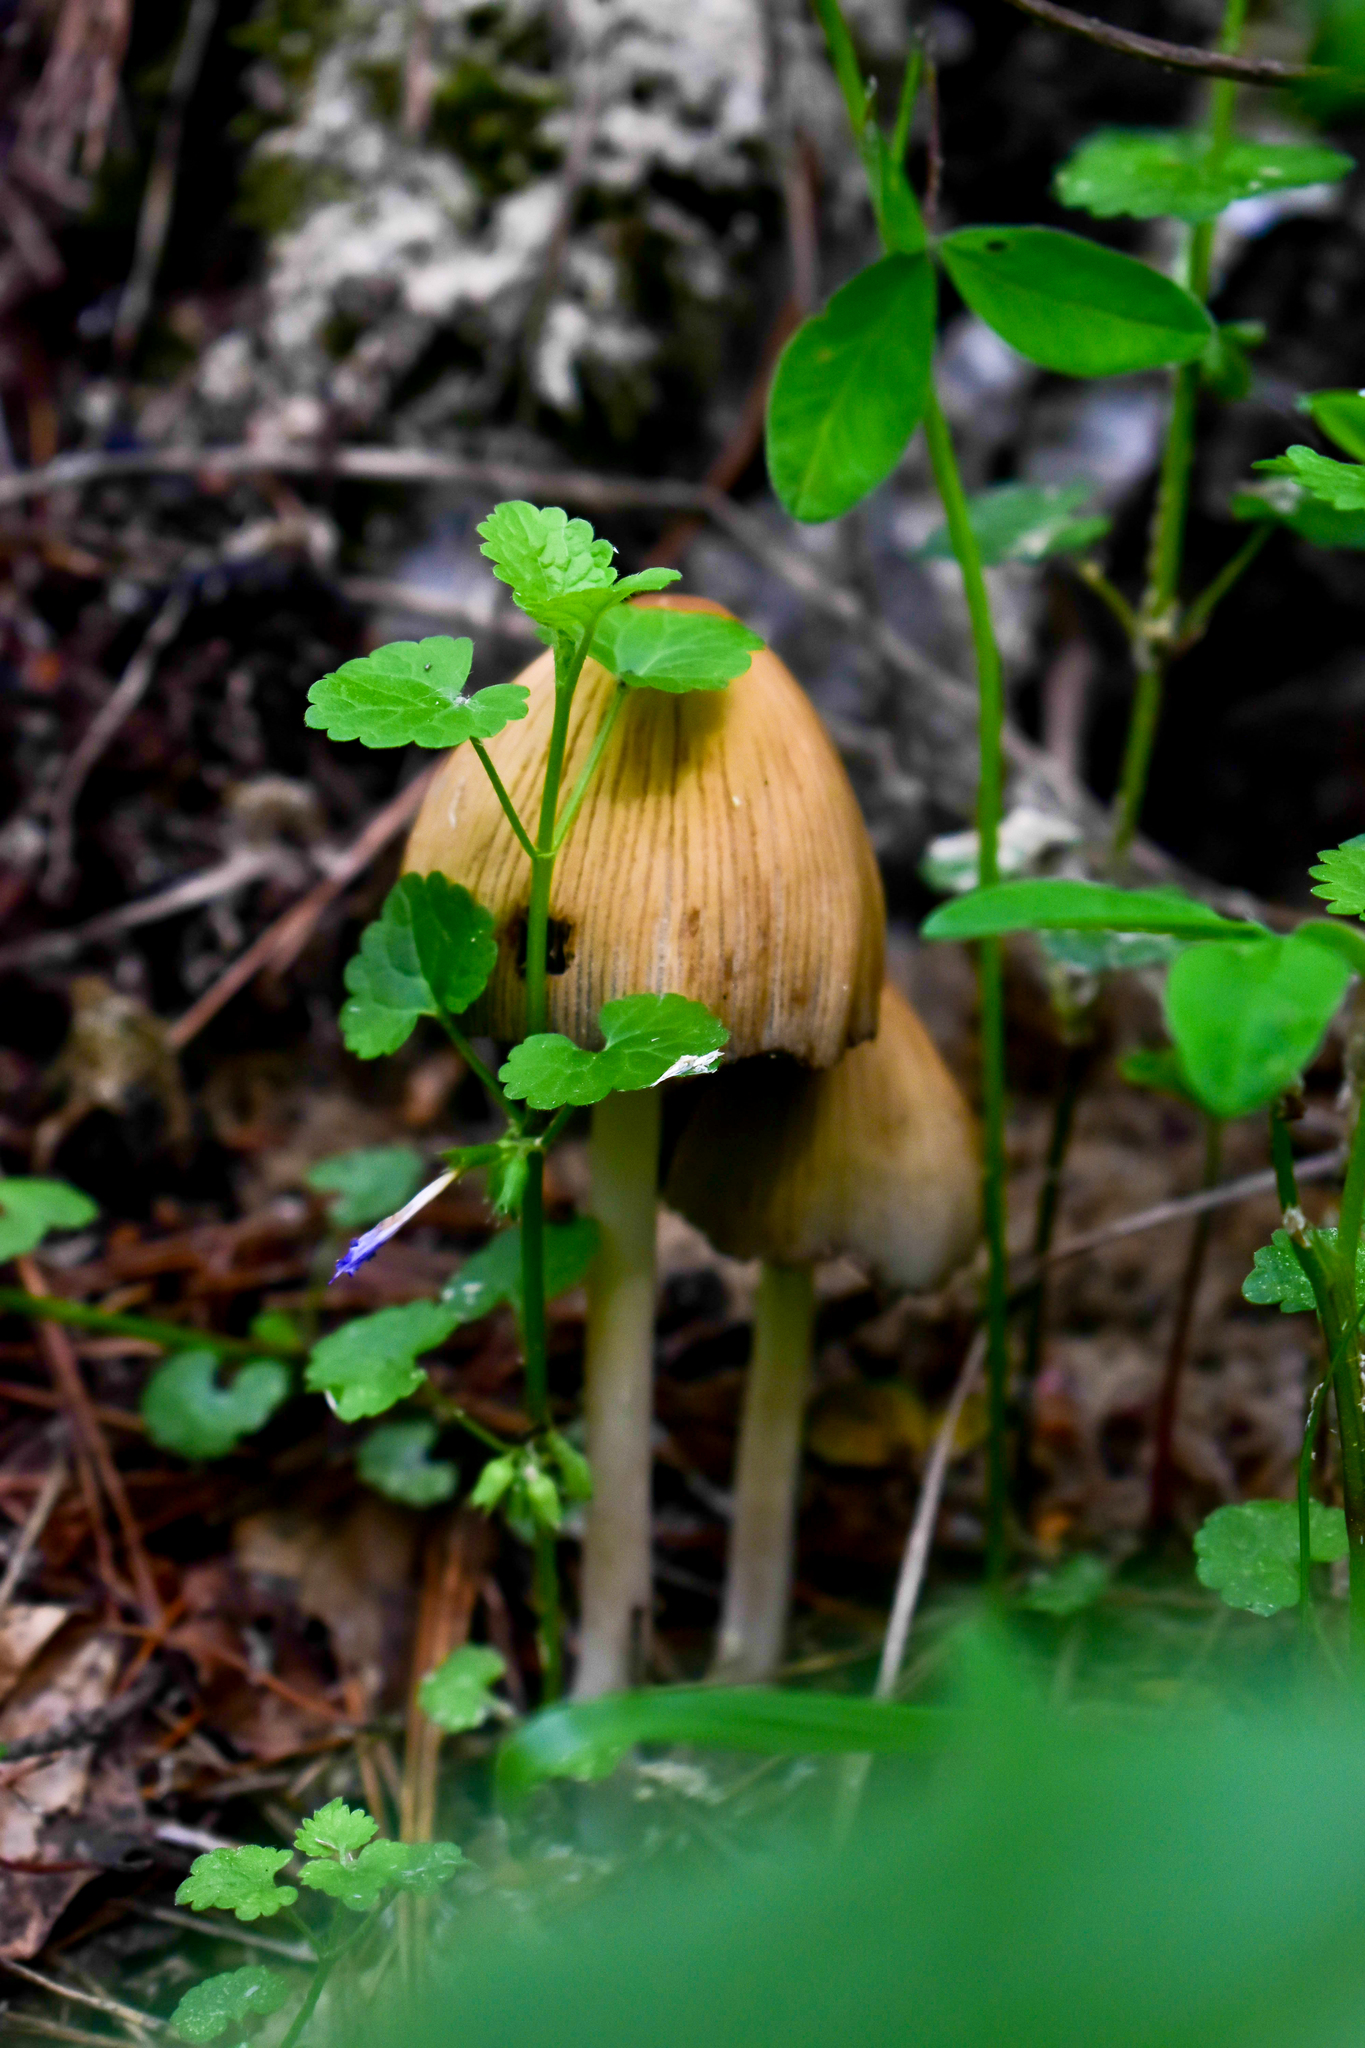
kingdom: Fungi
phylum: Basidiomycota
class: Agaricomycetes
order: Agaricales
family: Psathyrellaceae
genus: Coprinellus
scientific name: Coprinellus micaceus
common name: Glistening ink-cap
